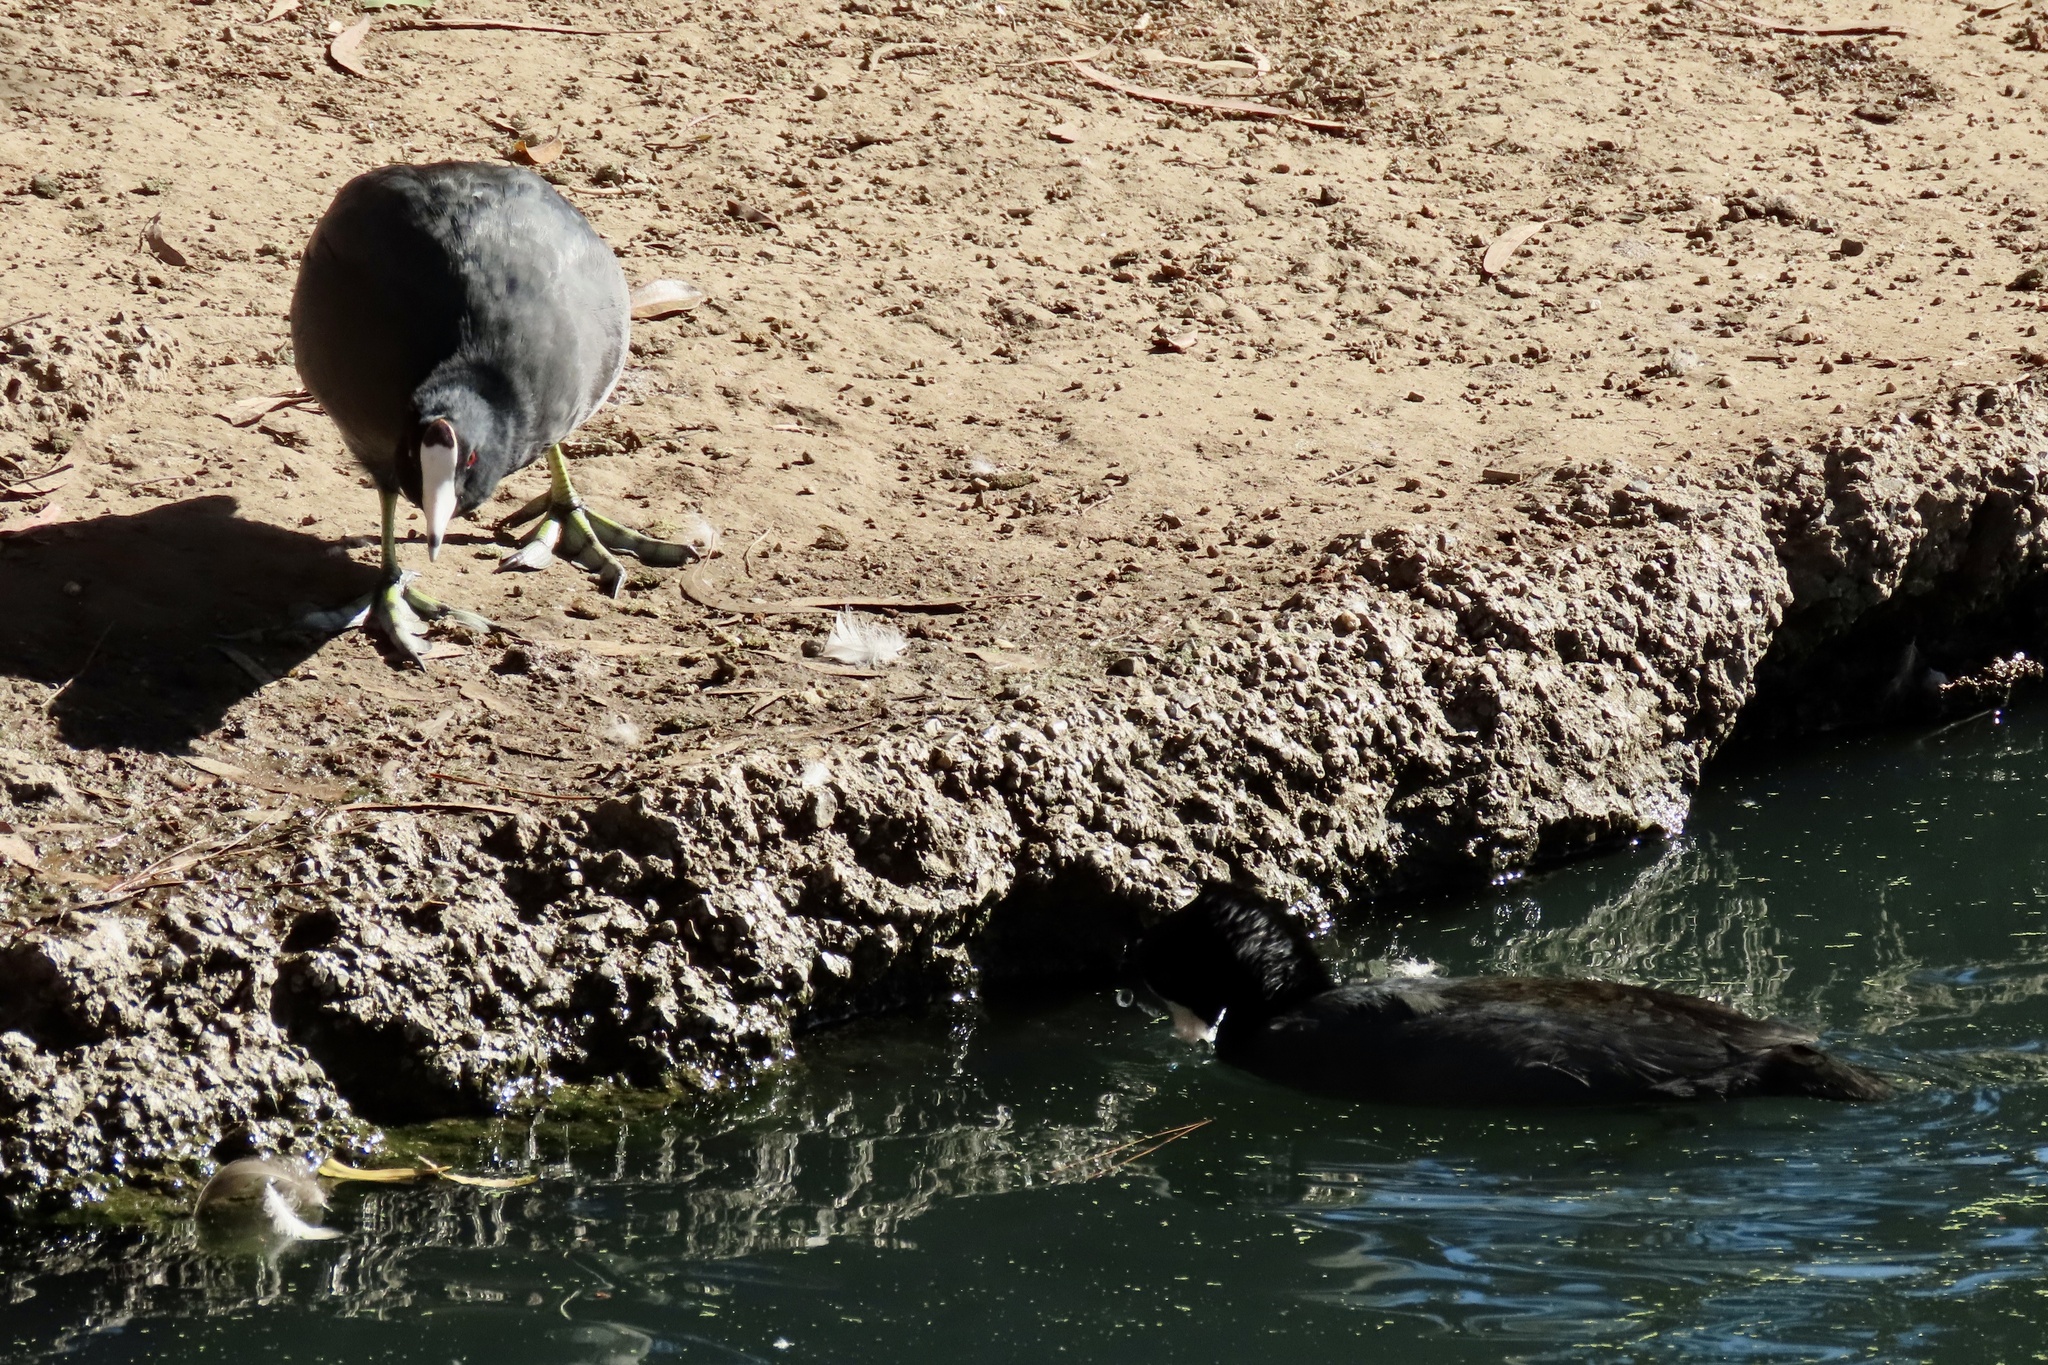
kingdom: Animalia
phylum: Chordata
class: Aves
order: Gruiformes
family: Rallidae
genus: Fulica
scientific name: Fulica americana
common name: American coot
